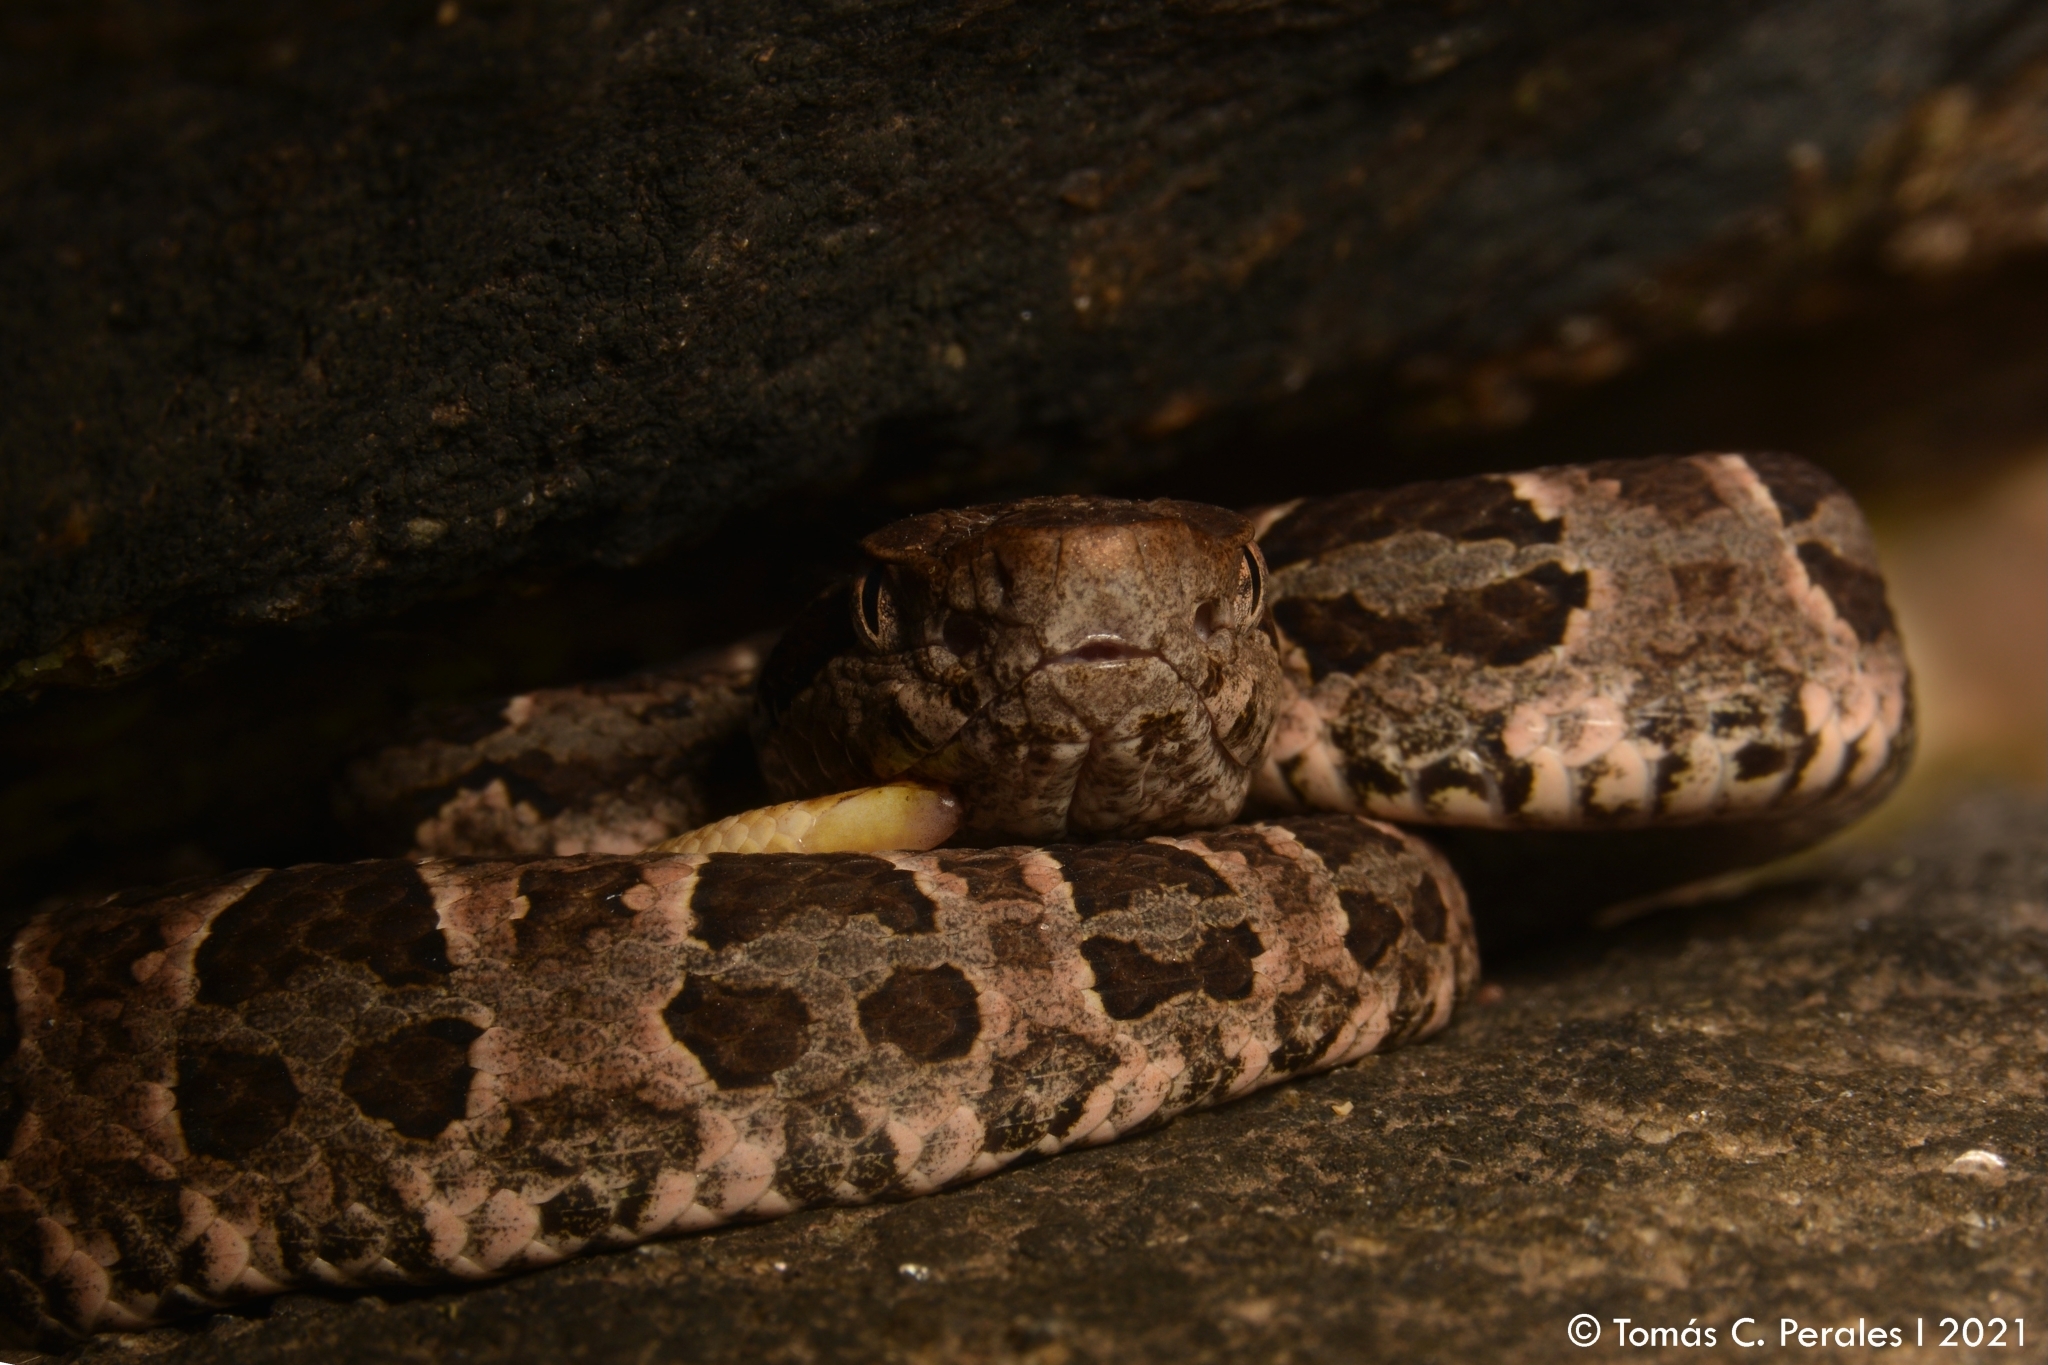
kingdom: Animalia
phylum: Chordata
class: Squamata
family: Viperidae
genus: Bothrops
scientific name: Bothrops diporus
